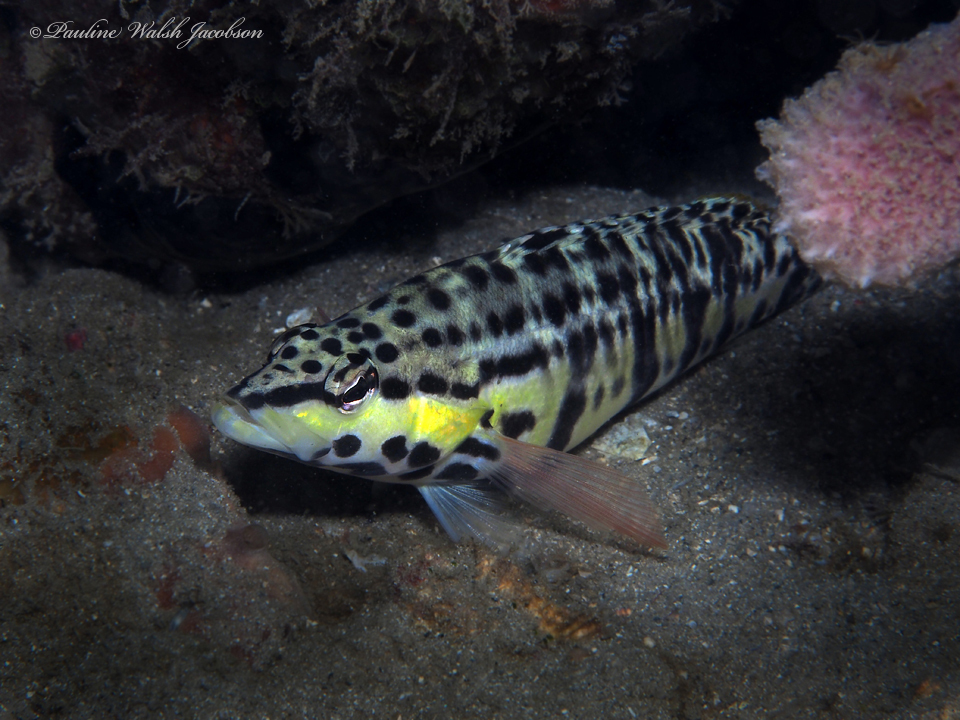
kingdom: Animalia
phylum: Chordata
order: Perciformes
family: Serranidae
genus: Serranus
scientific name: Serranus tigrinus
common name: Harlequin bass
